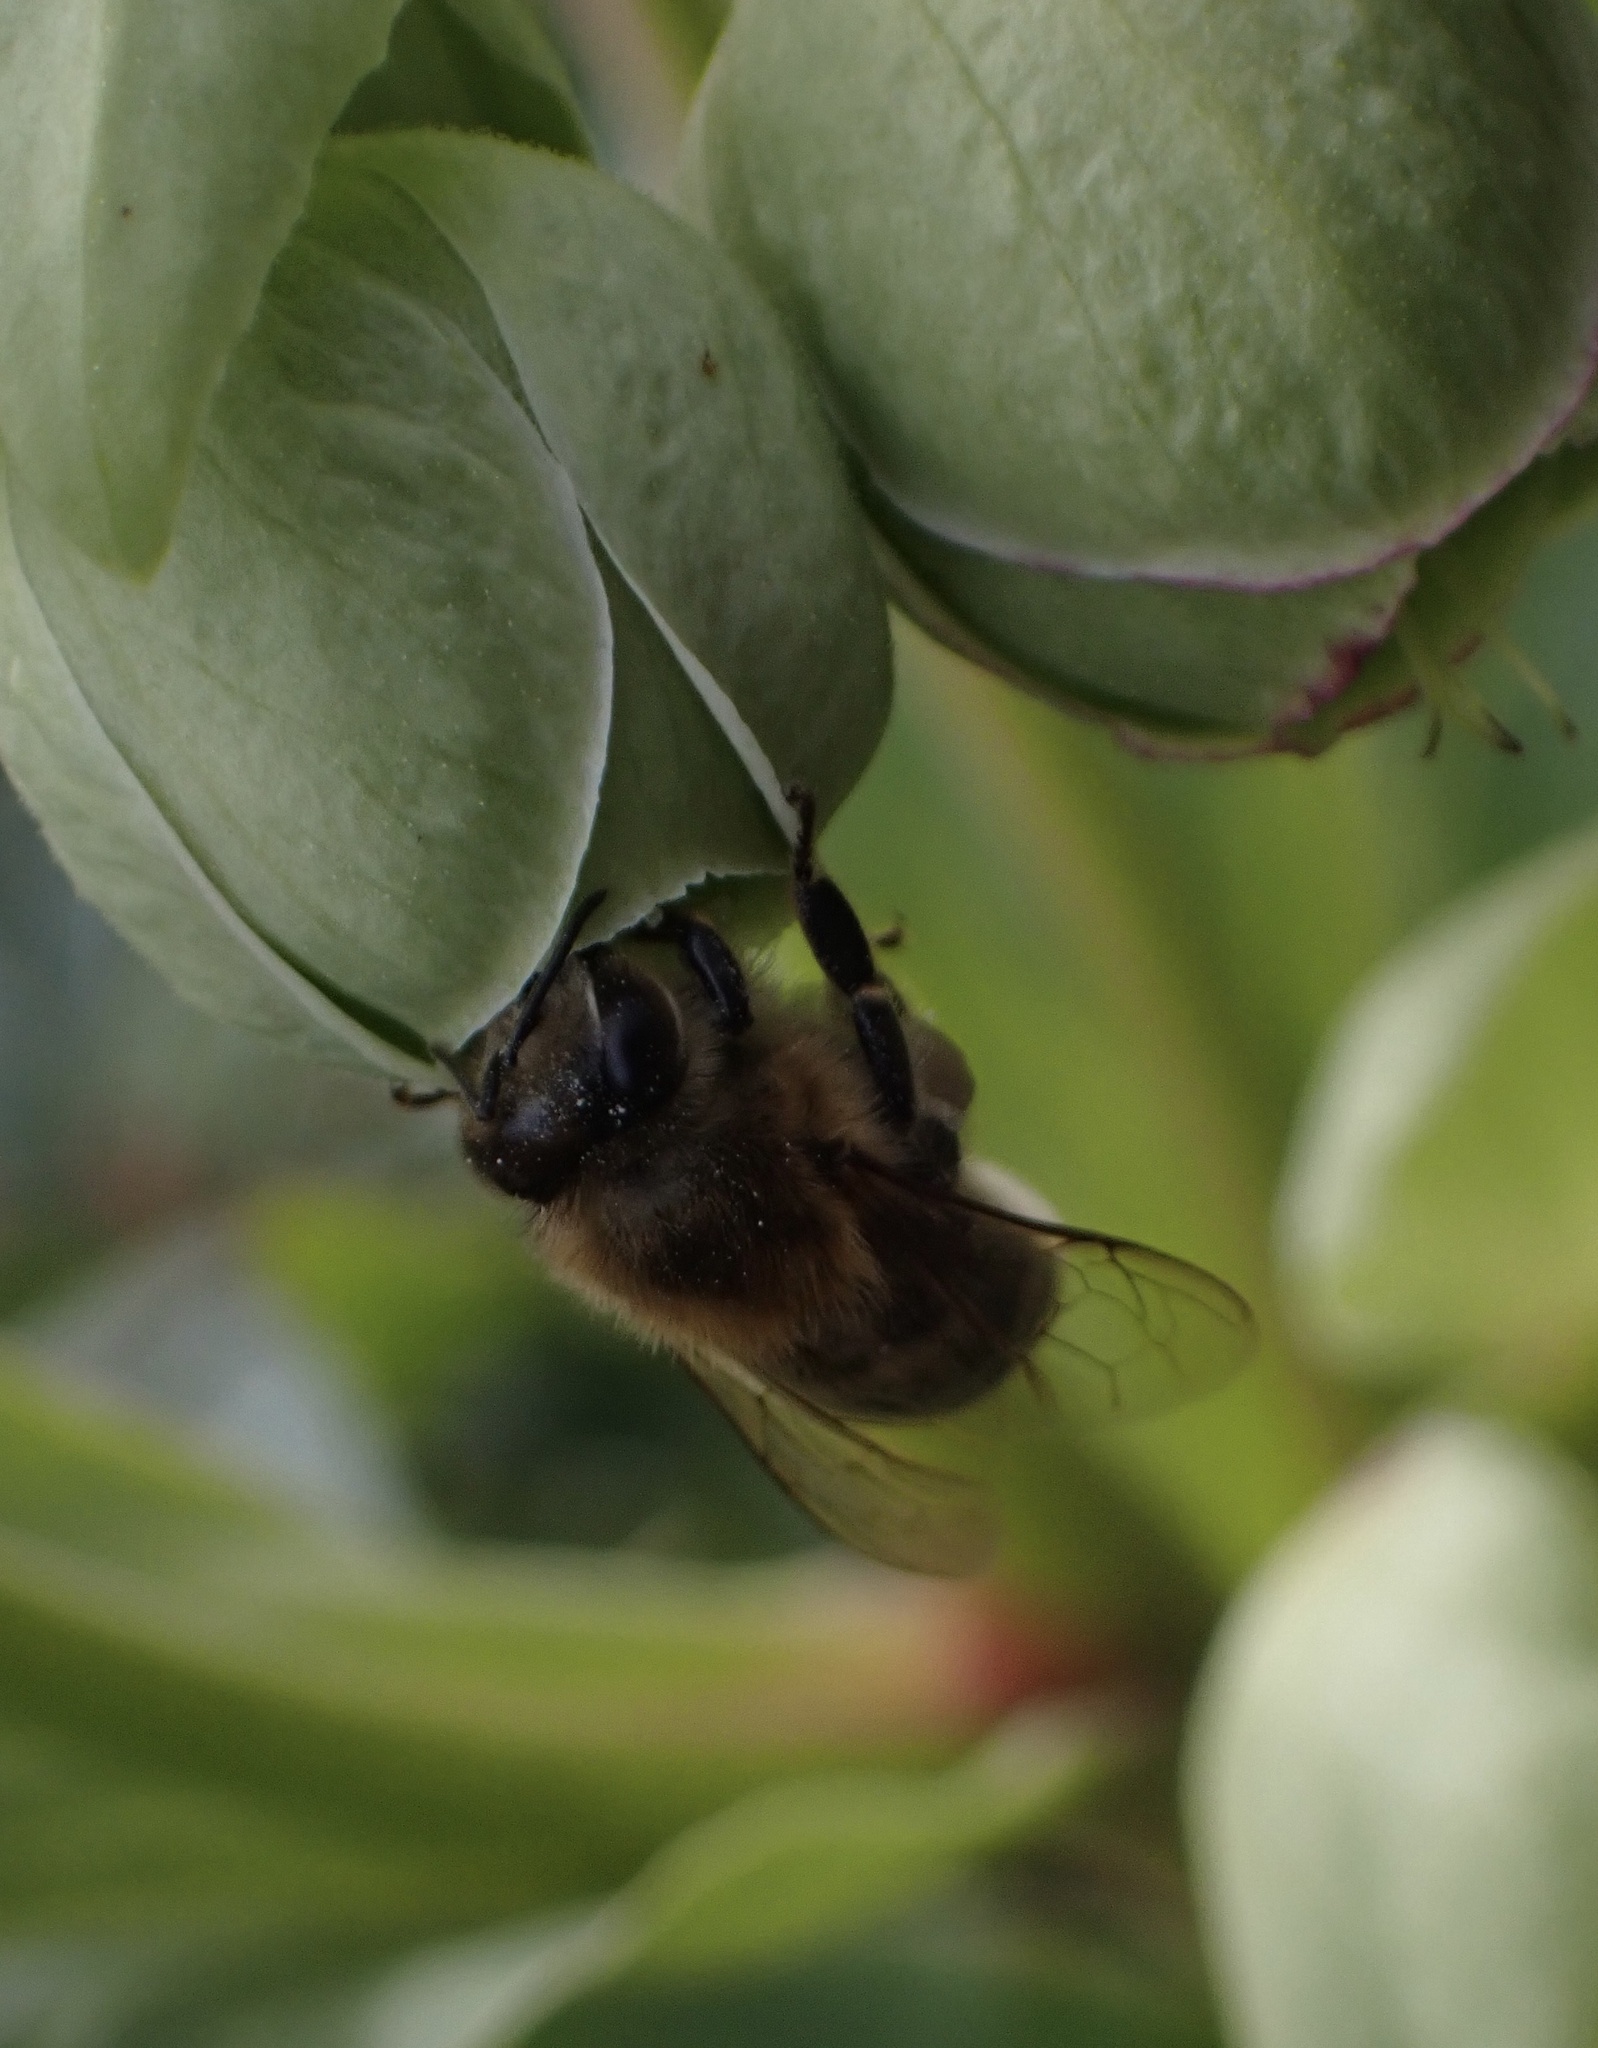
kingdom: Animalia
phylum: Arthropoda
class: Insecta
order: Hymenoptera
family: Apidae
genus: Apis
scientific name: Apis mellifera
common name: Honey bee
